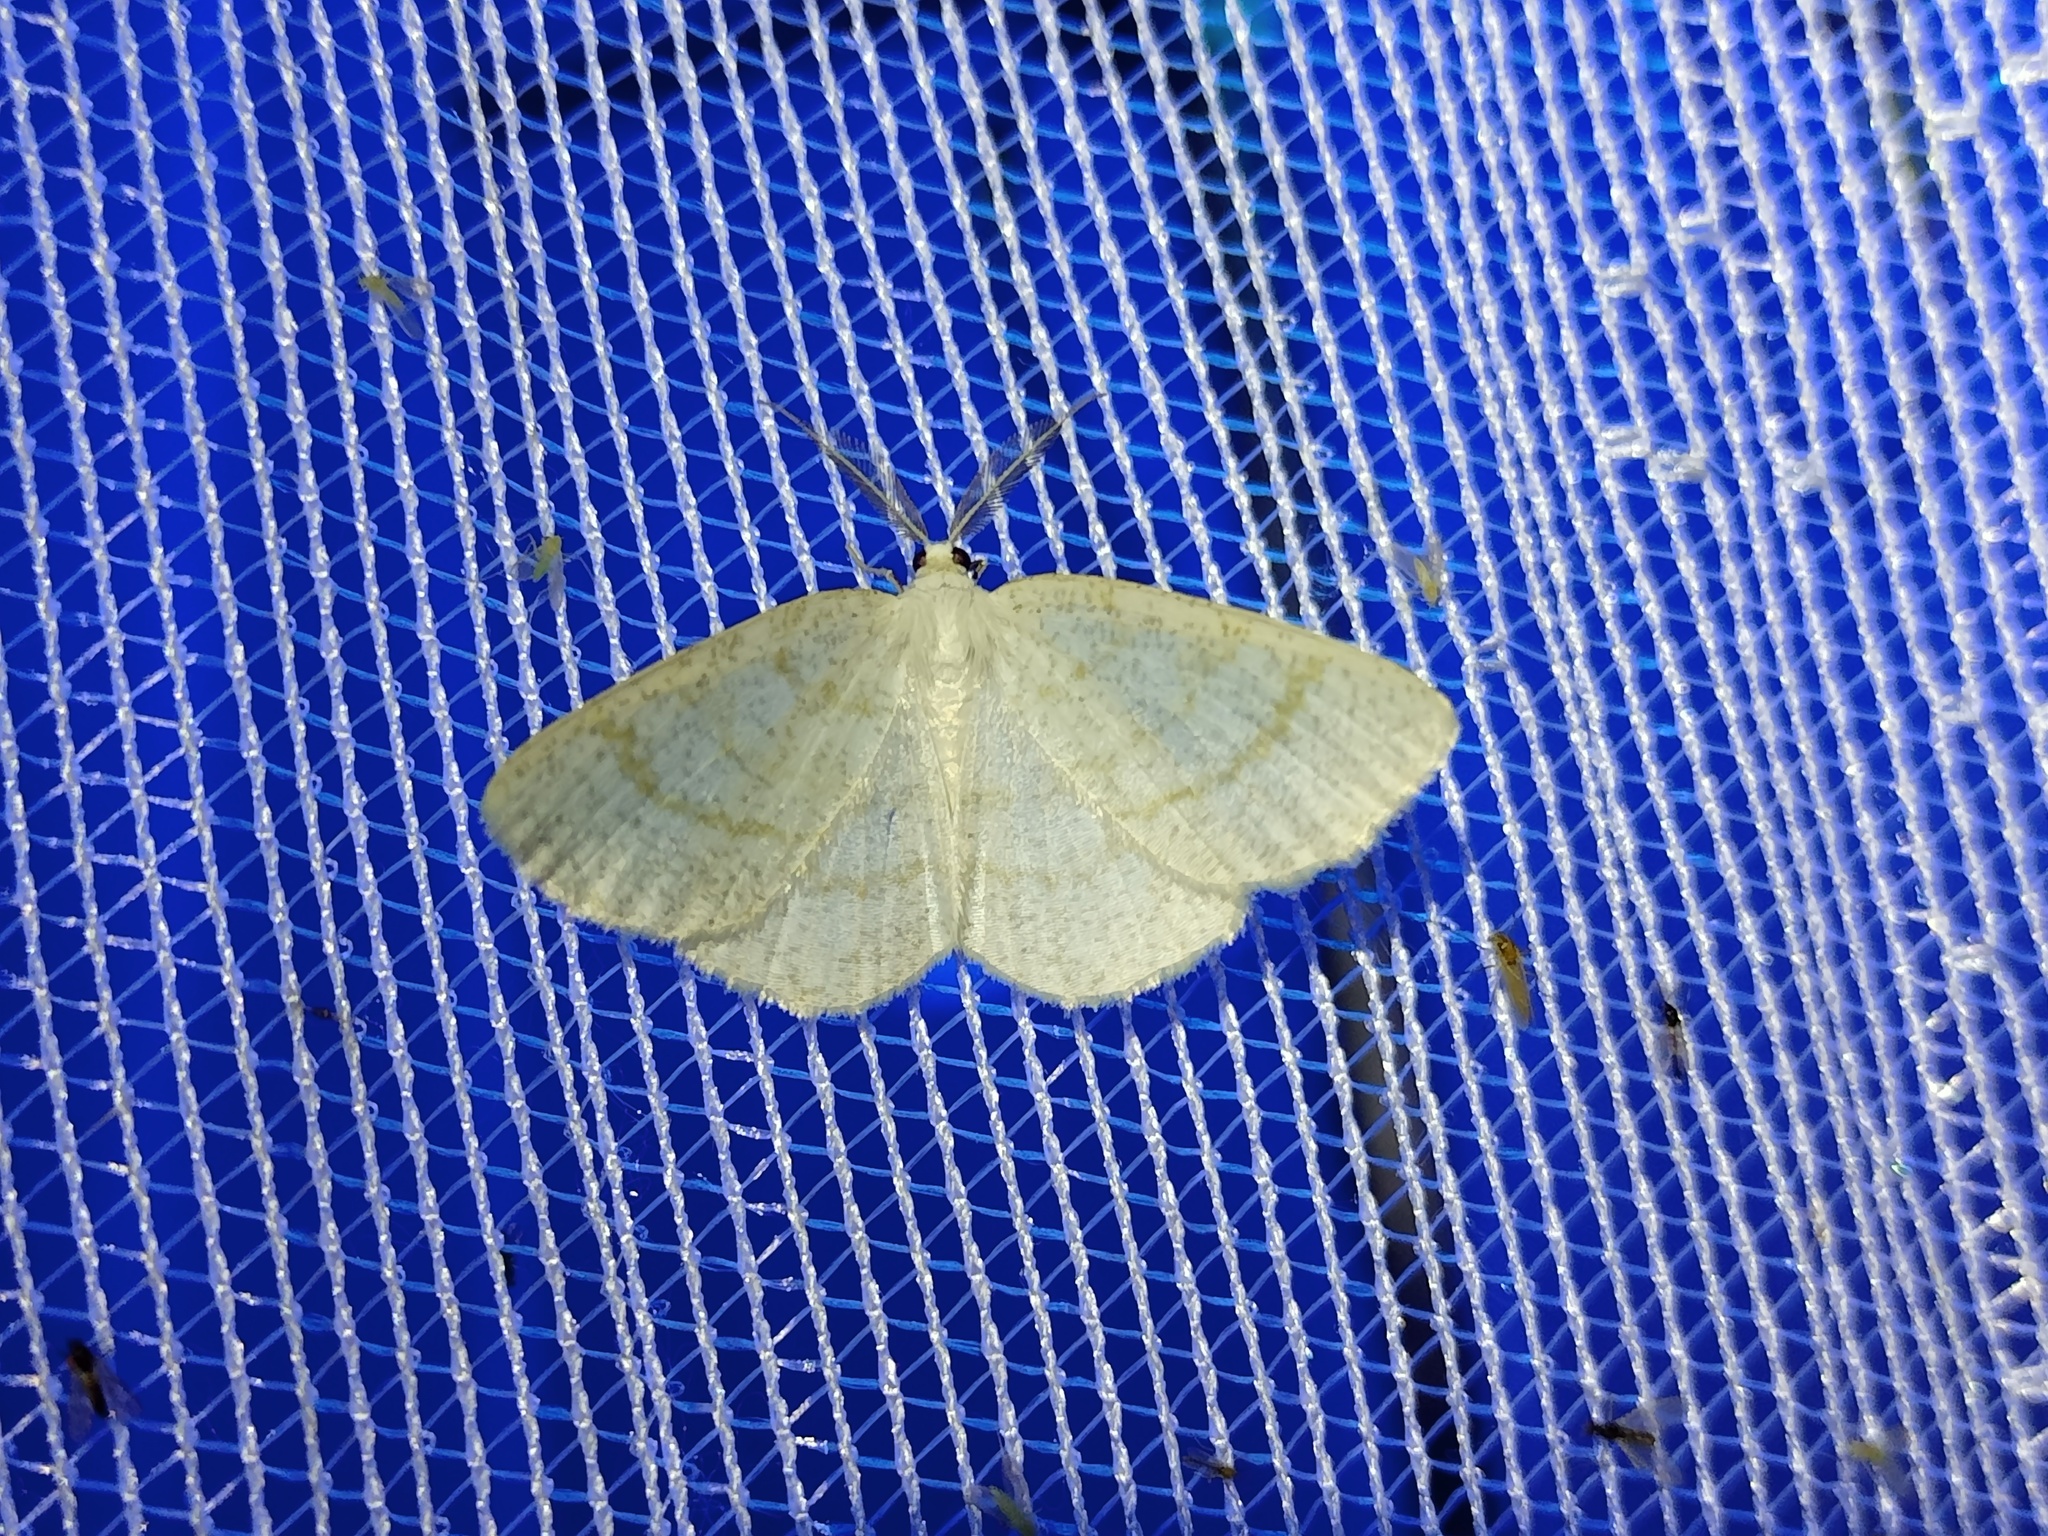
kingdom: Animalia
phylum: Arthropoda
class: Insecta
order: Lepidoptera
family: Geometridae
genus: Cabera
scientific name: Cabera exanthemata
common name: Common wave
